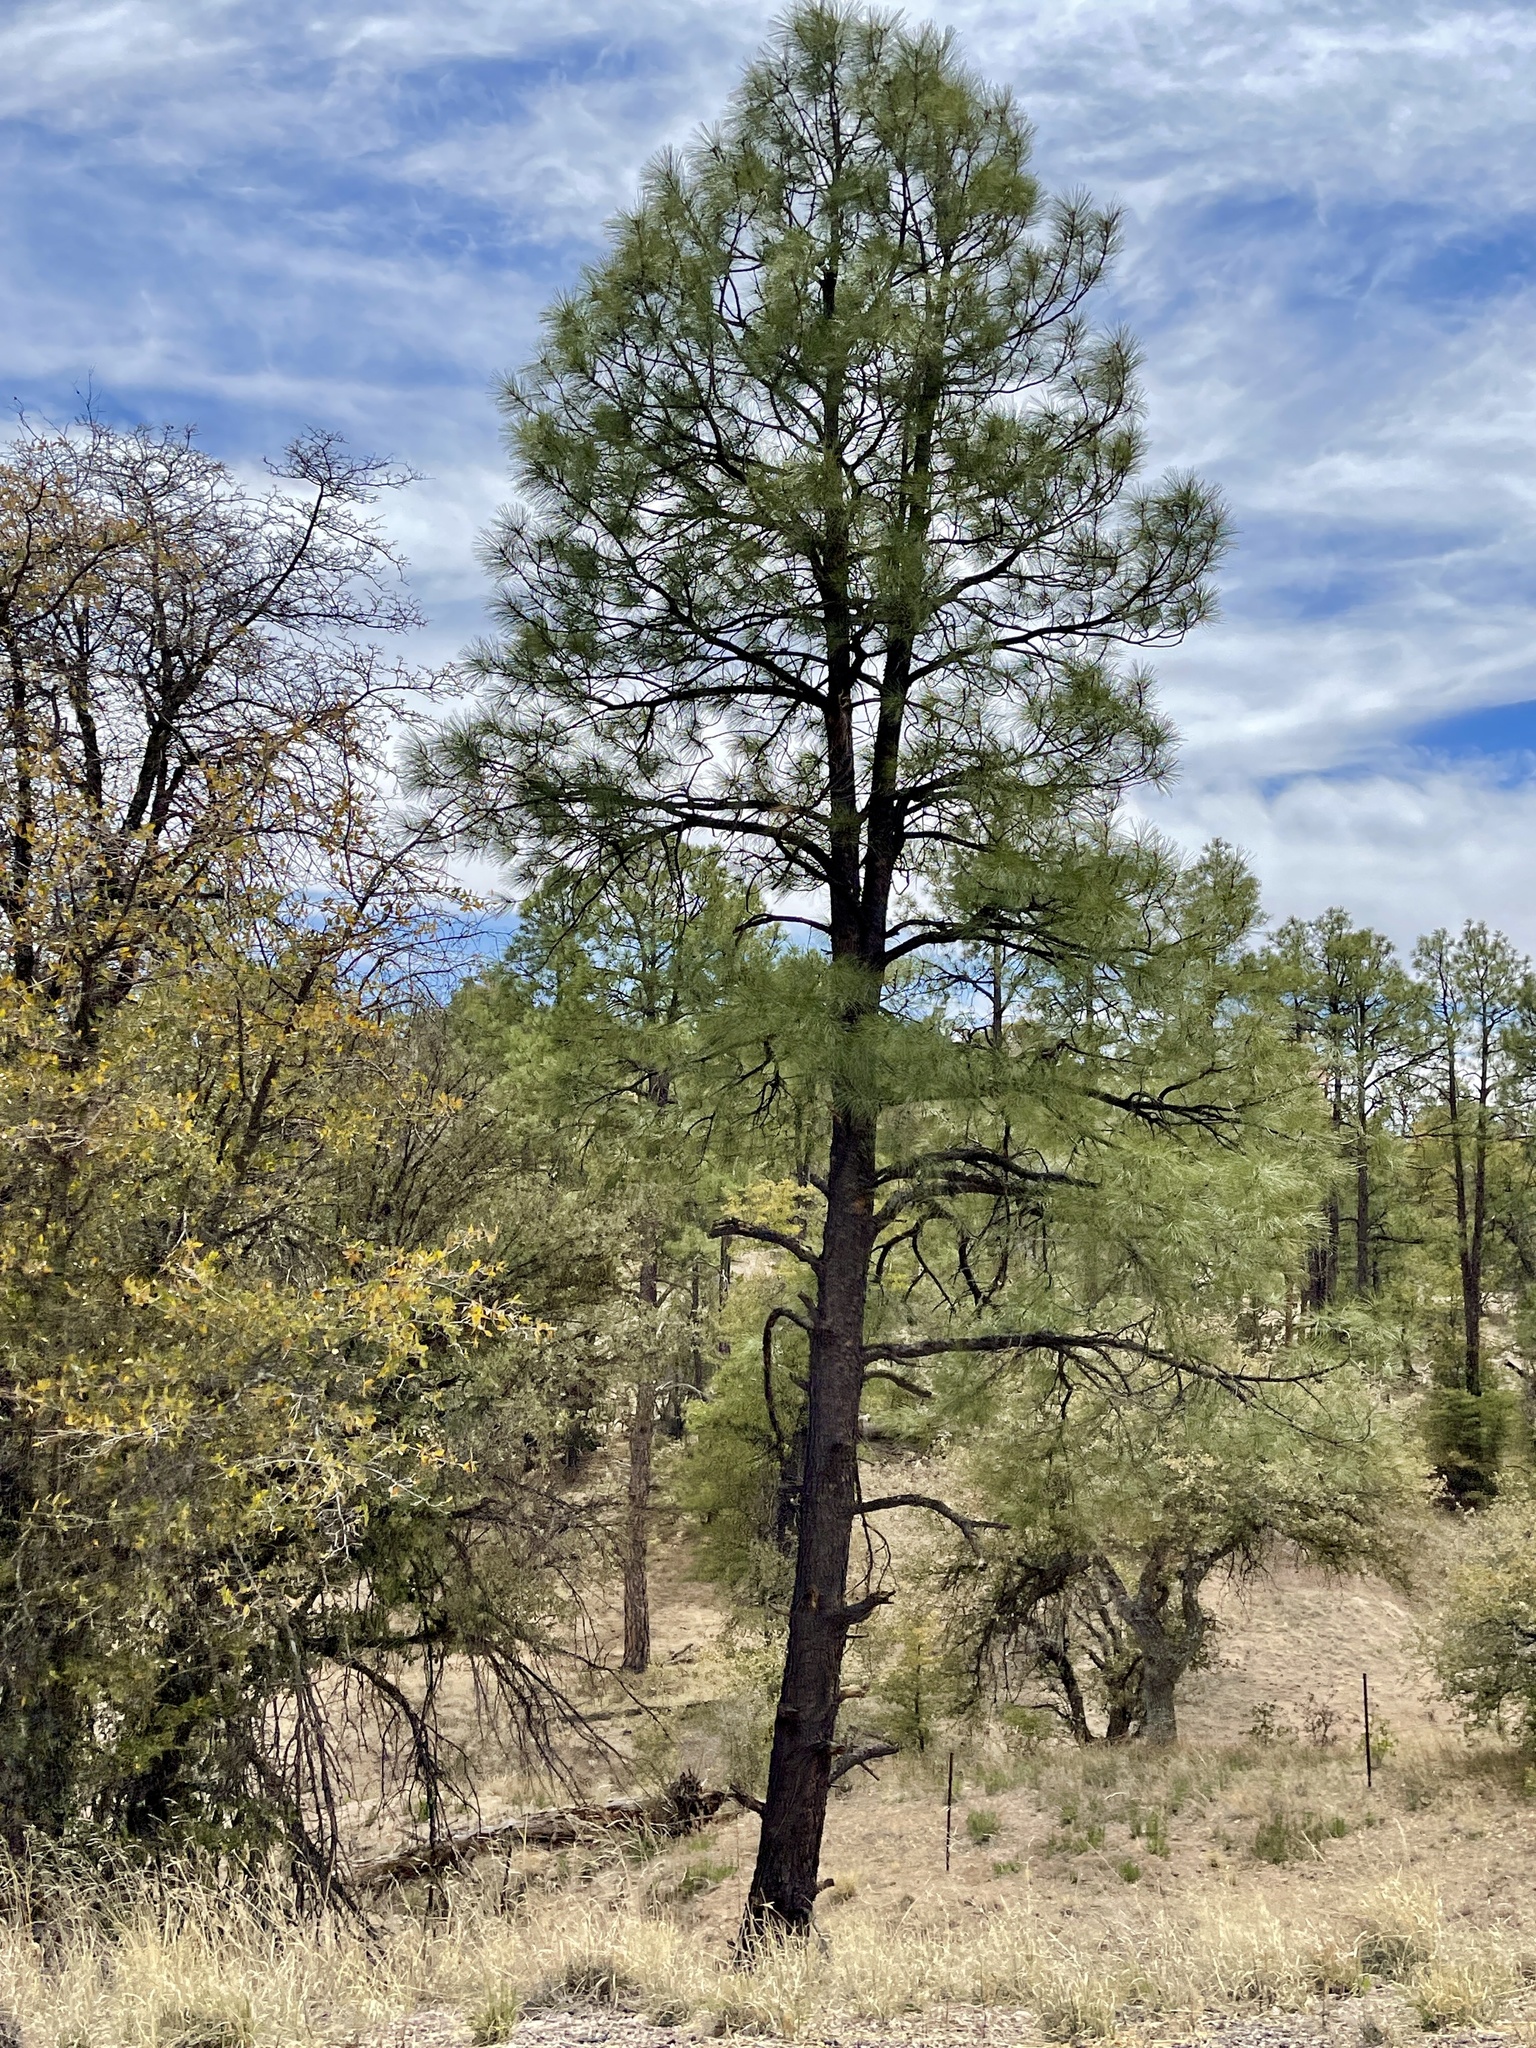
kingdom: Plantae
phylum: Tracheophyta
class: Pinopsida
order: Pinales
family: Pinaceae
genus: Pinus
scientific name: Pinus ponderosa
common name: Western yellow-pine
